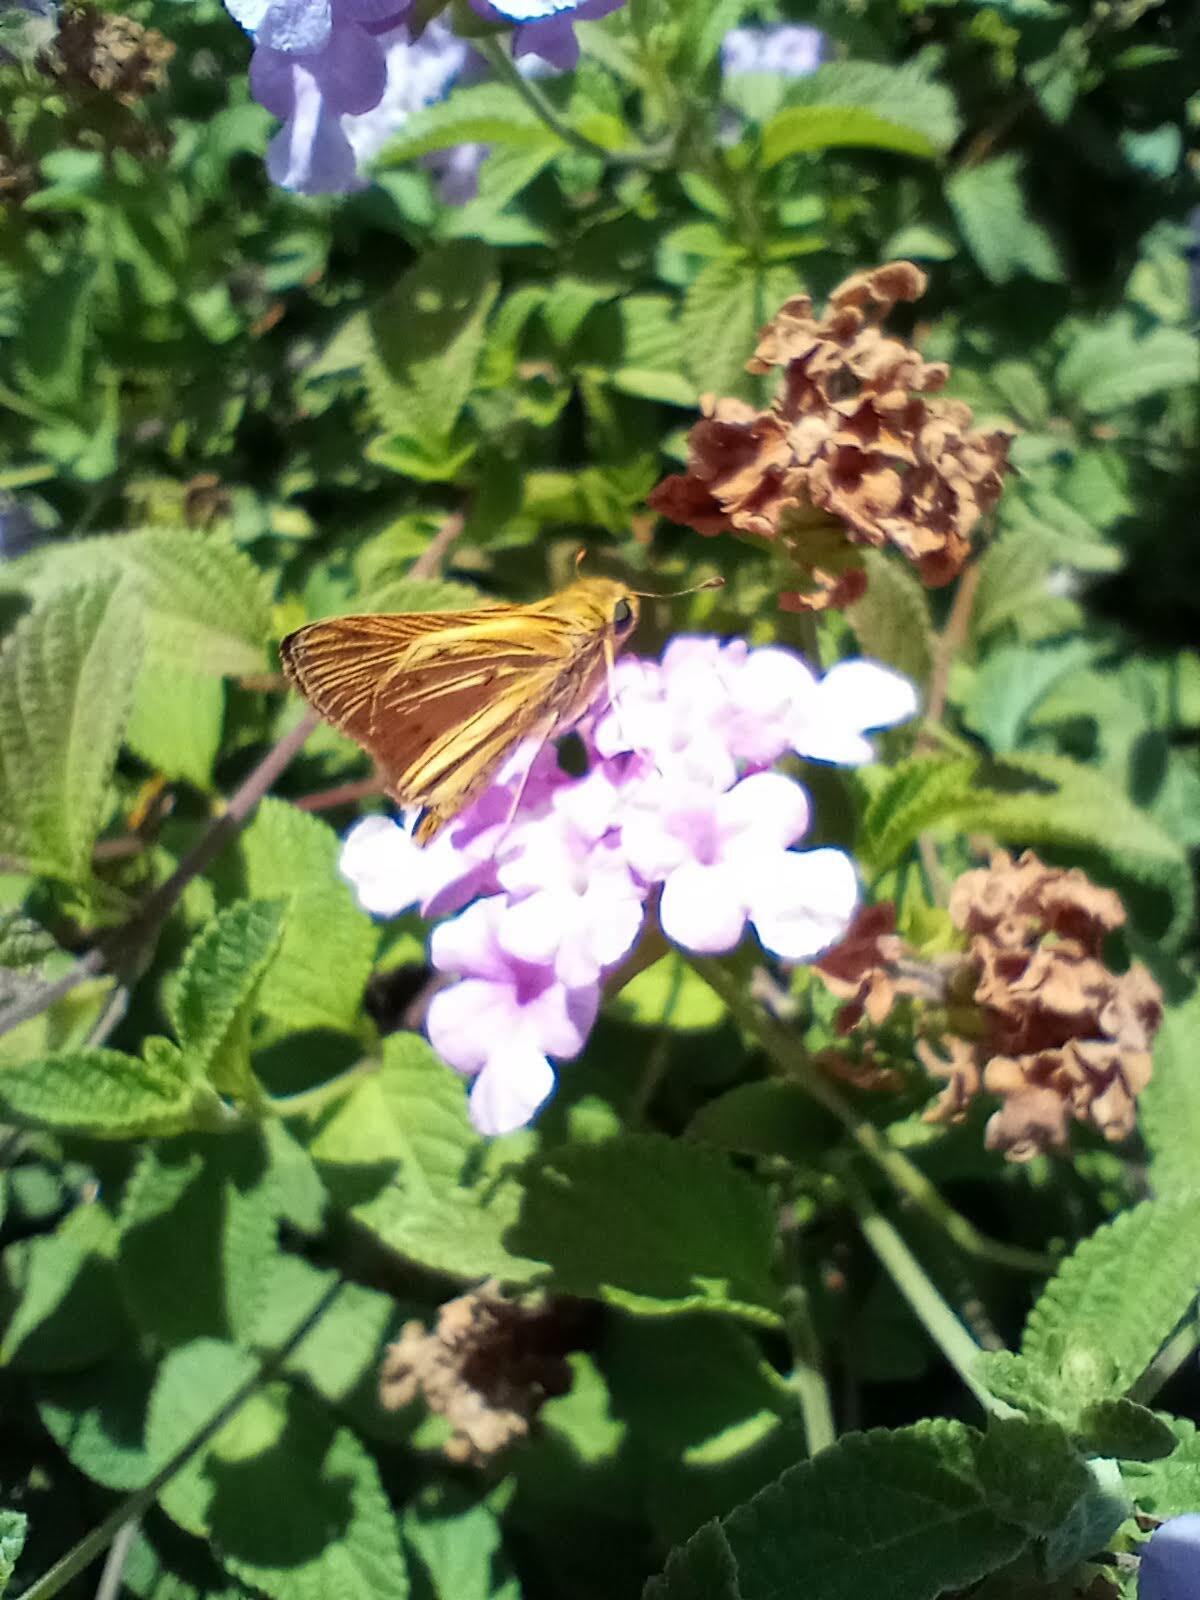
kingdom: Animalia
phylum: Arthropoda
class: Insecta
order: Lepidoptera
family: Hesperiidae
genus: Hylephila
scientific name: Hylephila phyleus
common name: Fiery skipper
